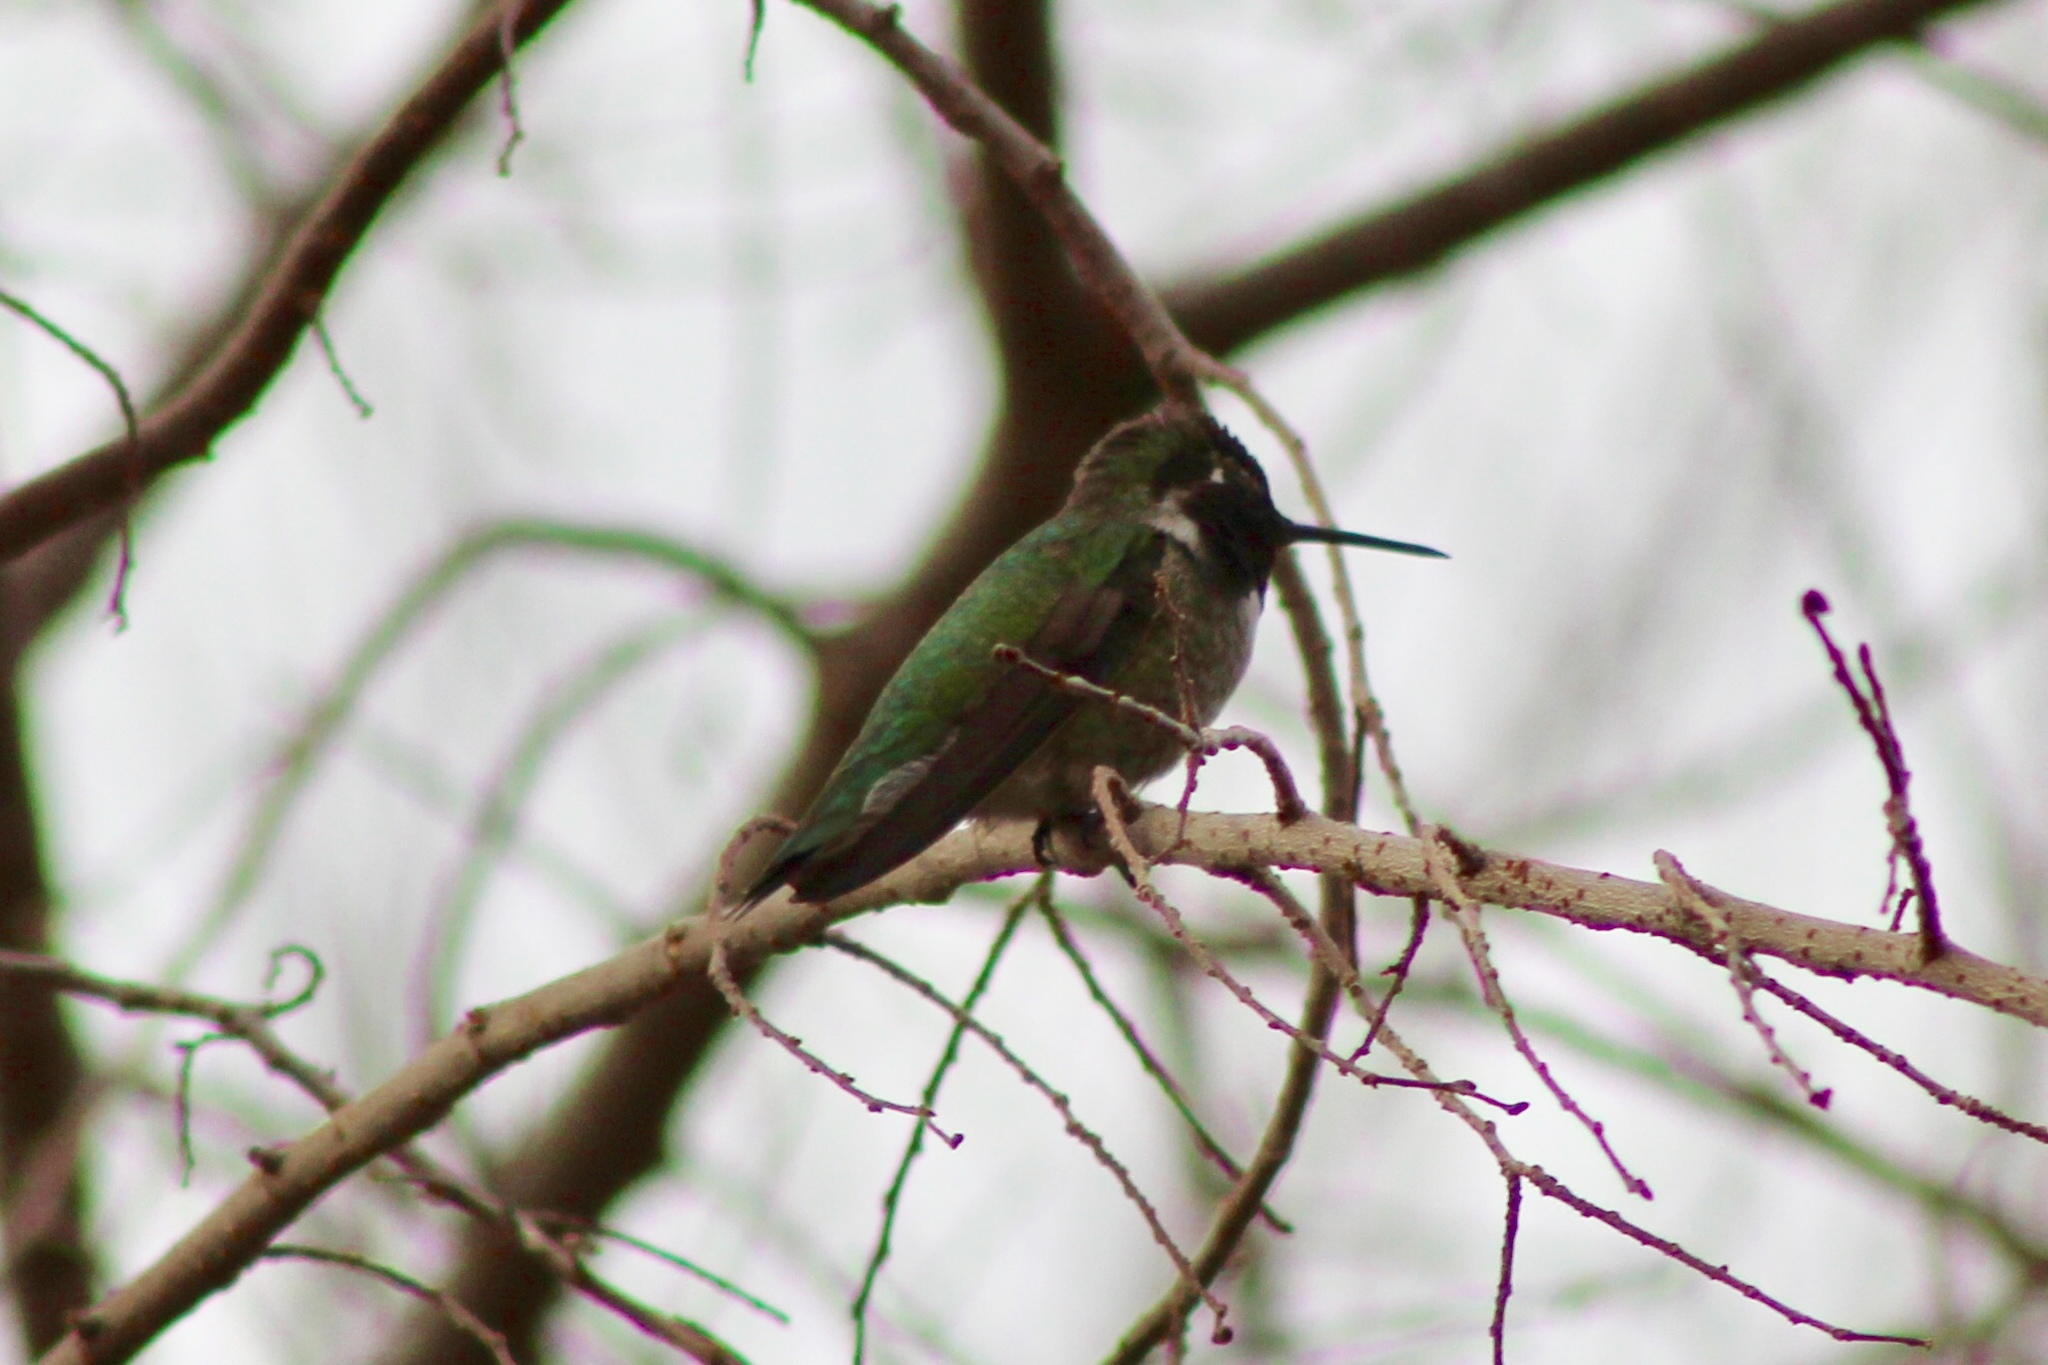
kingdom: Animalia
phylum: Chordata
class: Aves
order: Apodiformes
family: Trochilidae
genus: Calypte
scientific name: Calypte anna
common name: Anna's hummingbird
